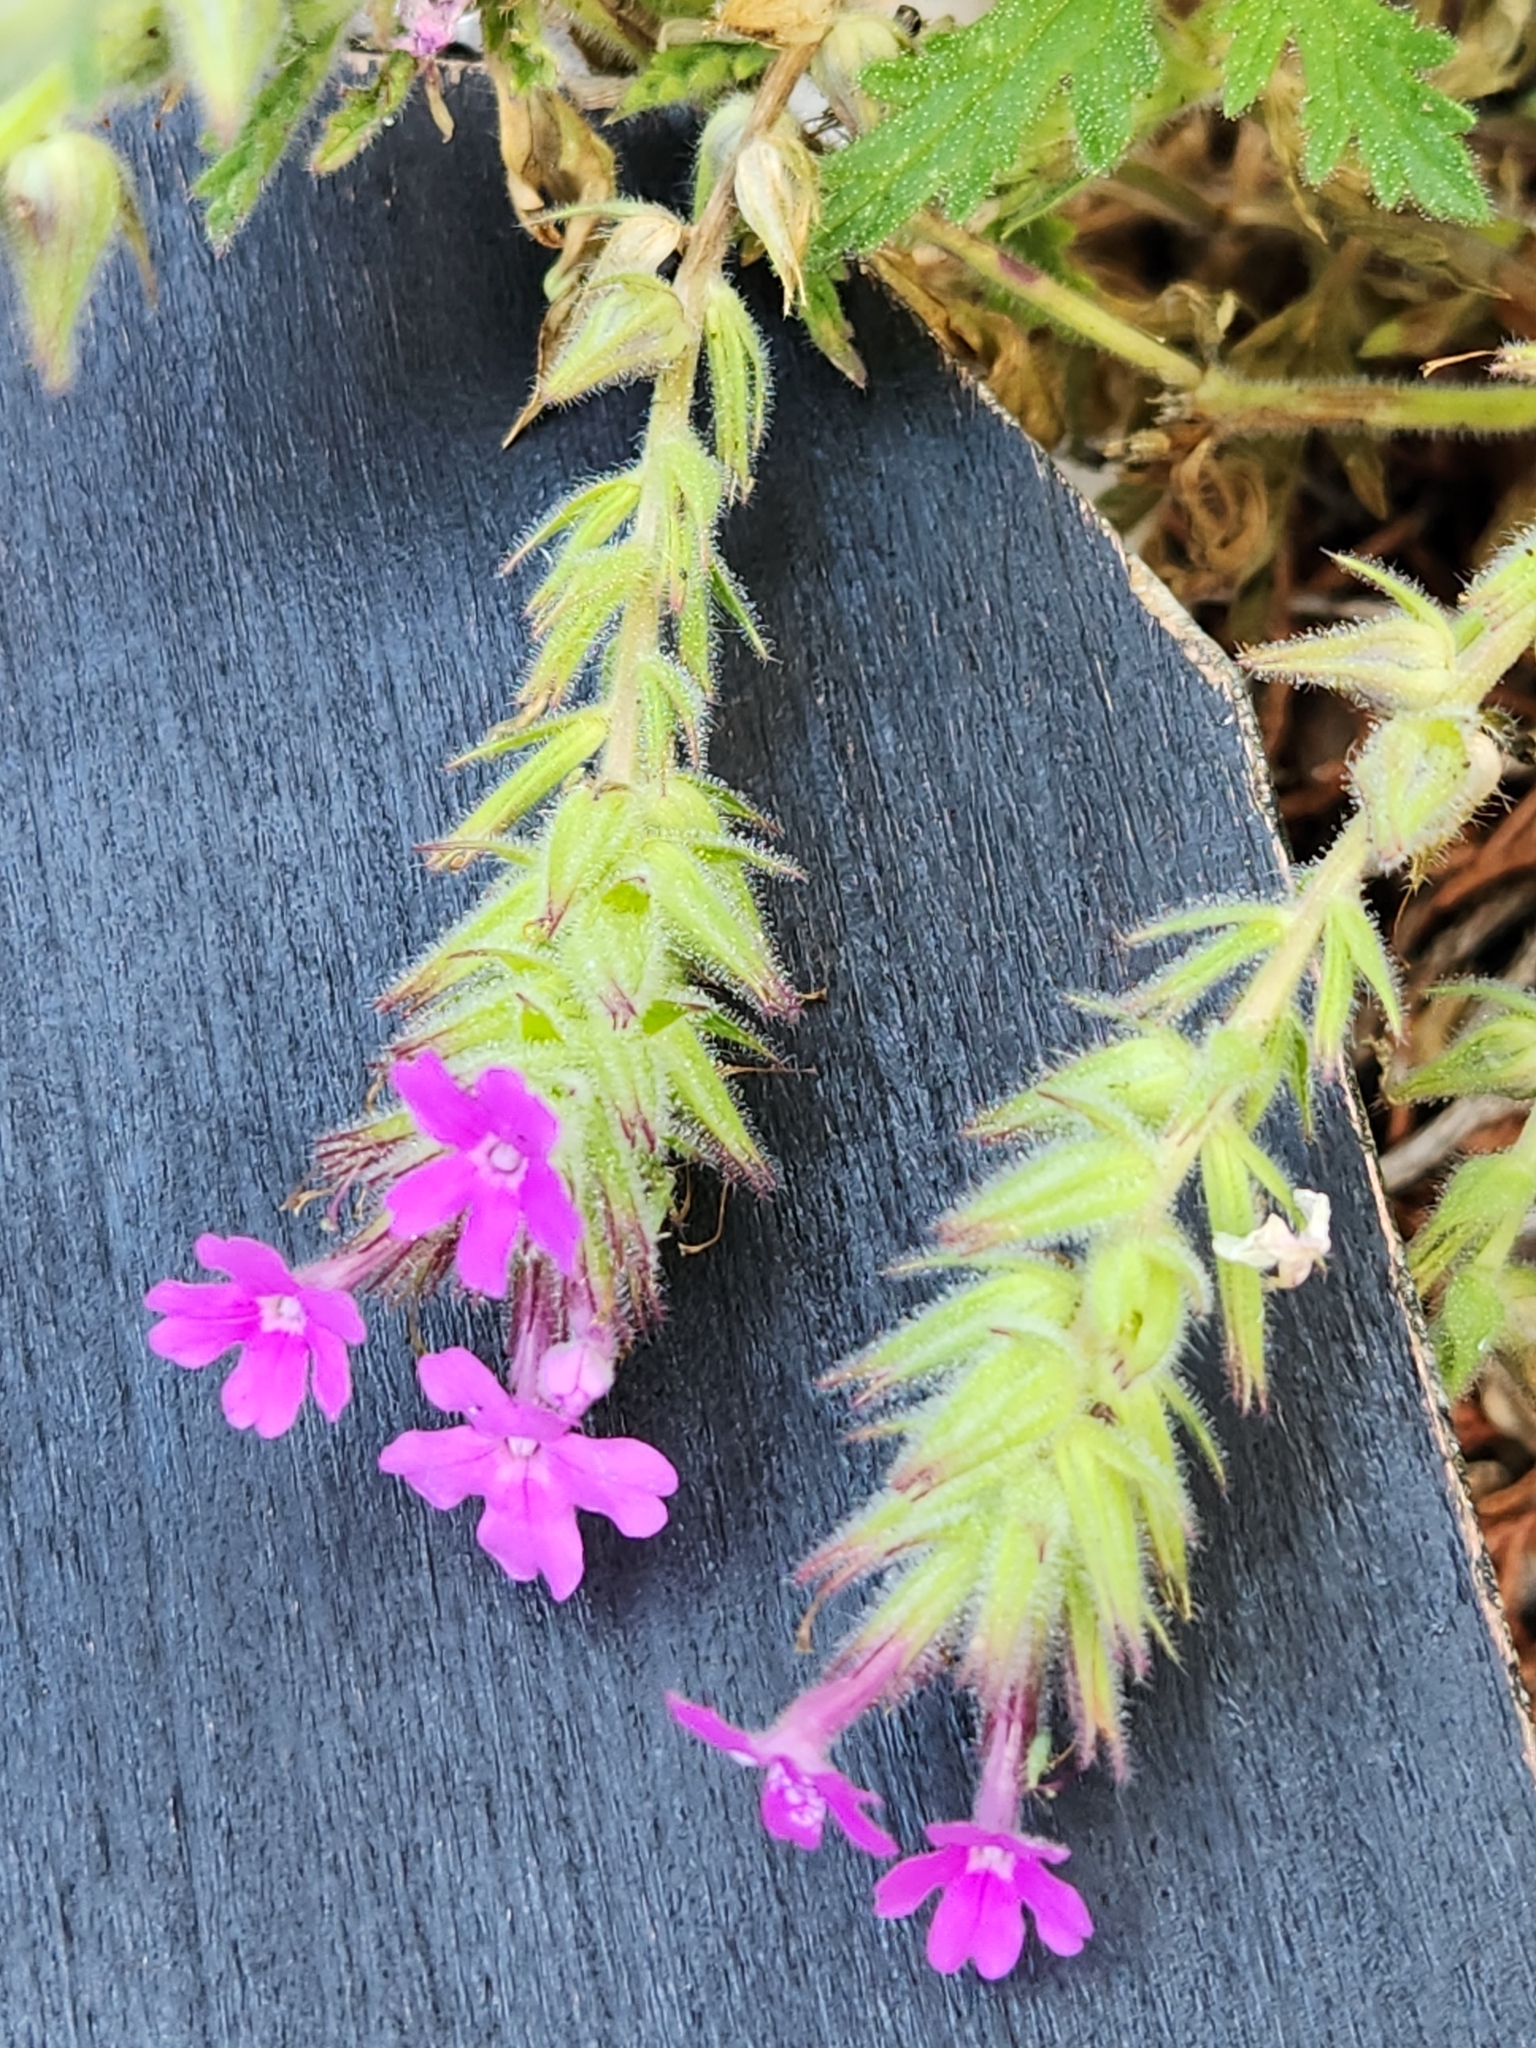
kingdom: Plantae
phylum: Tracheophyta
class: Magnoliopsida
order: Lamiales
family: Verbenaceae
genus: Verbena
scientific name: Verbena tumidula
